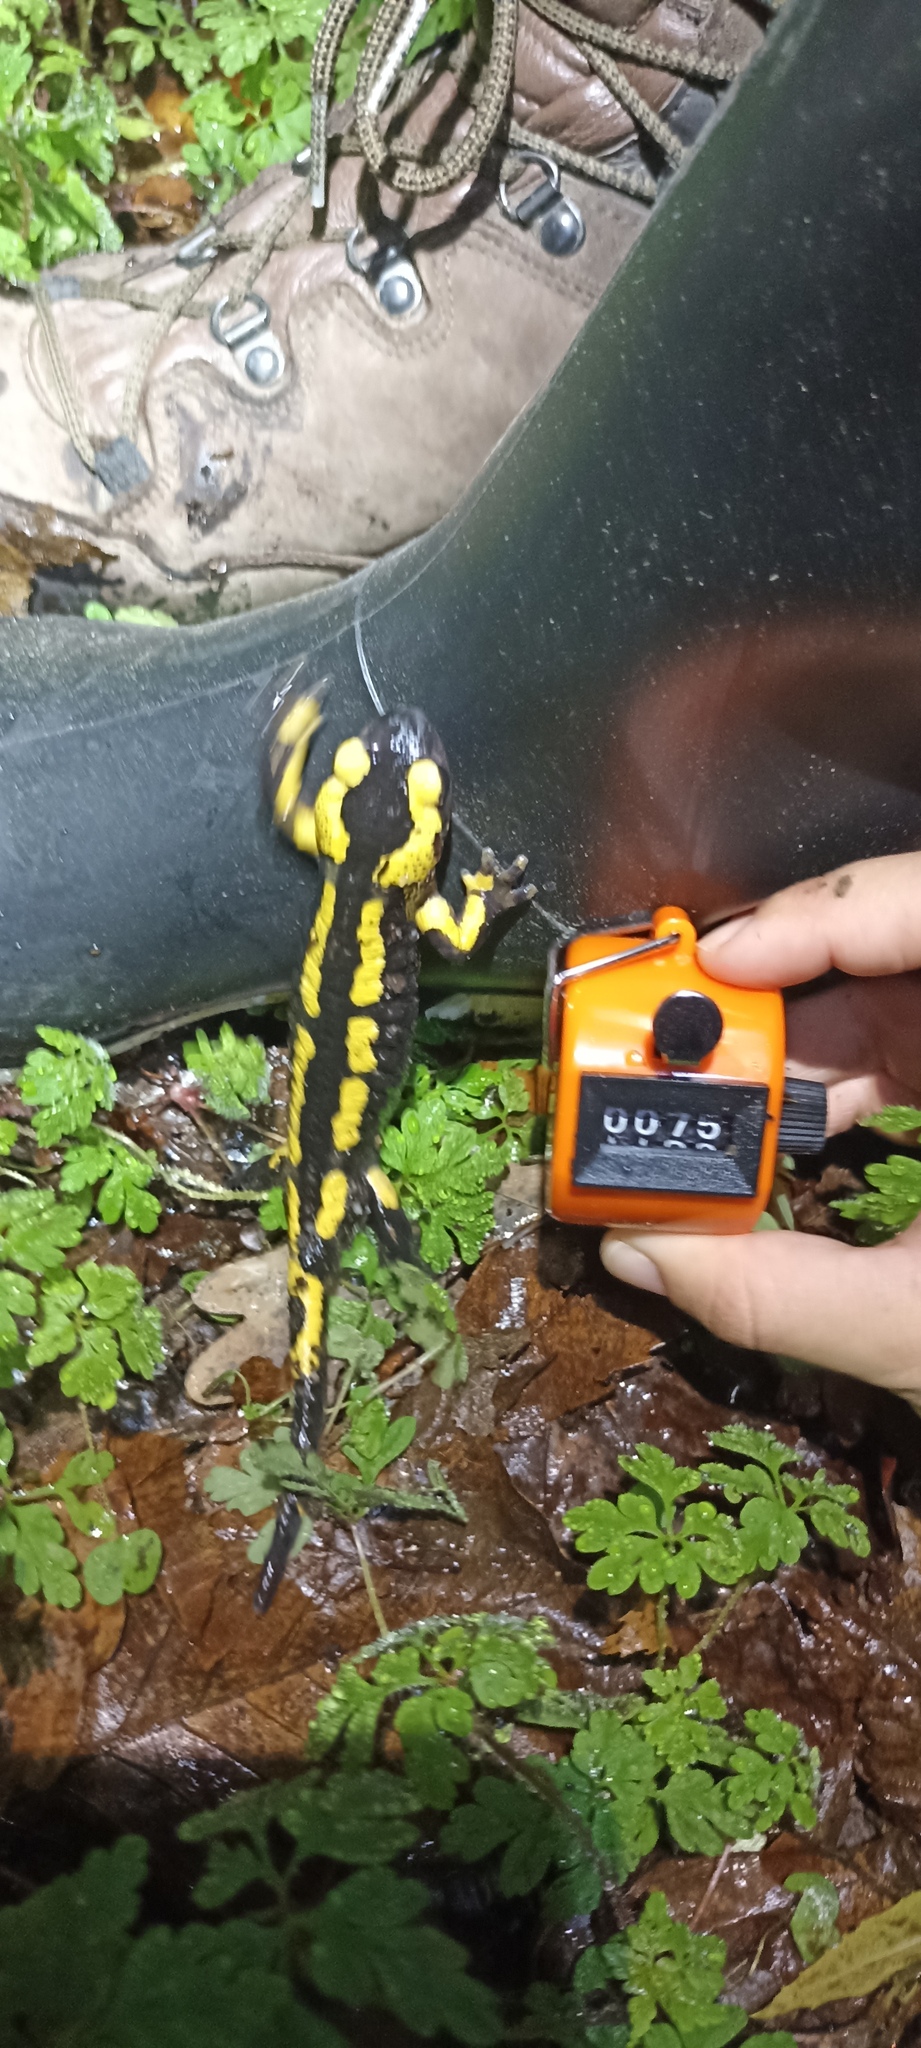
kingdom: Animalia
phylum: Chordata
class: Amphibia
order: Caudata
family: Salamandridae
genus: Salamandra
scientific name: Salamandra salamandra
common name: Fire salamander
